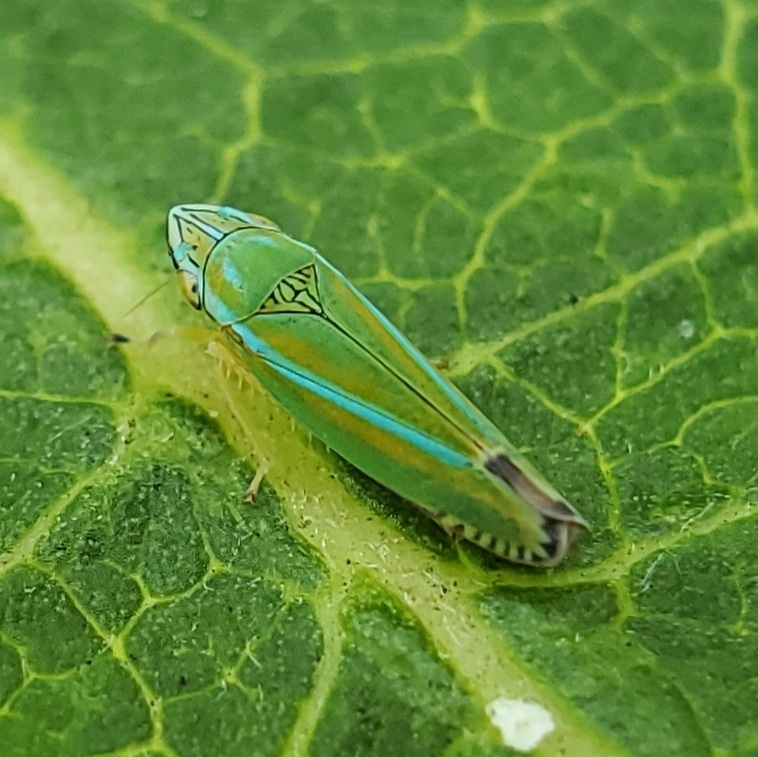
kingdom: Animalia
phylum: Arthropoda
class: Insecta
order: Hemiptera
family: Cicadellidae
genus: Graphocephala
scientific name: Graphocephala versuta
